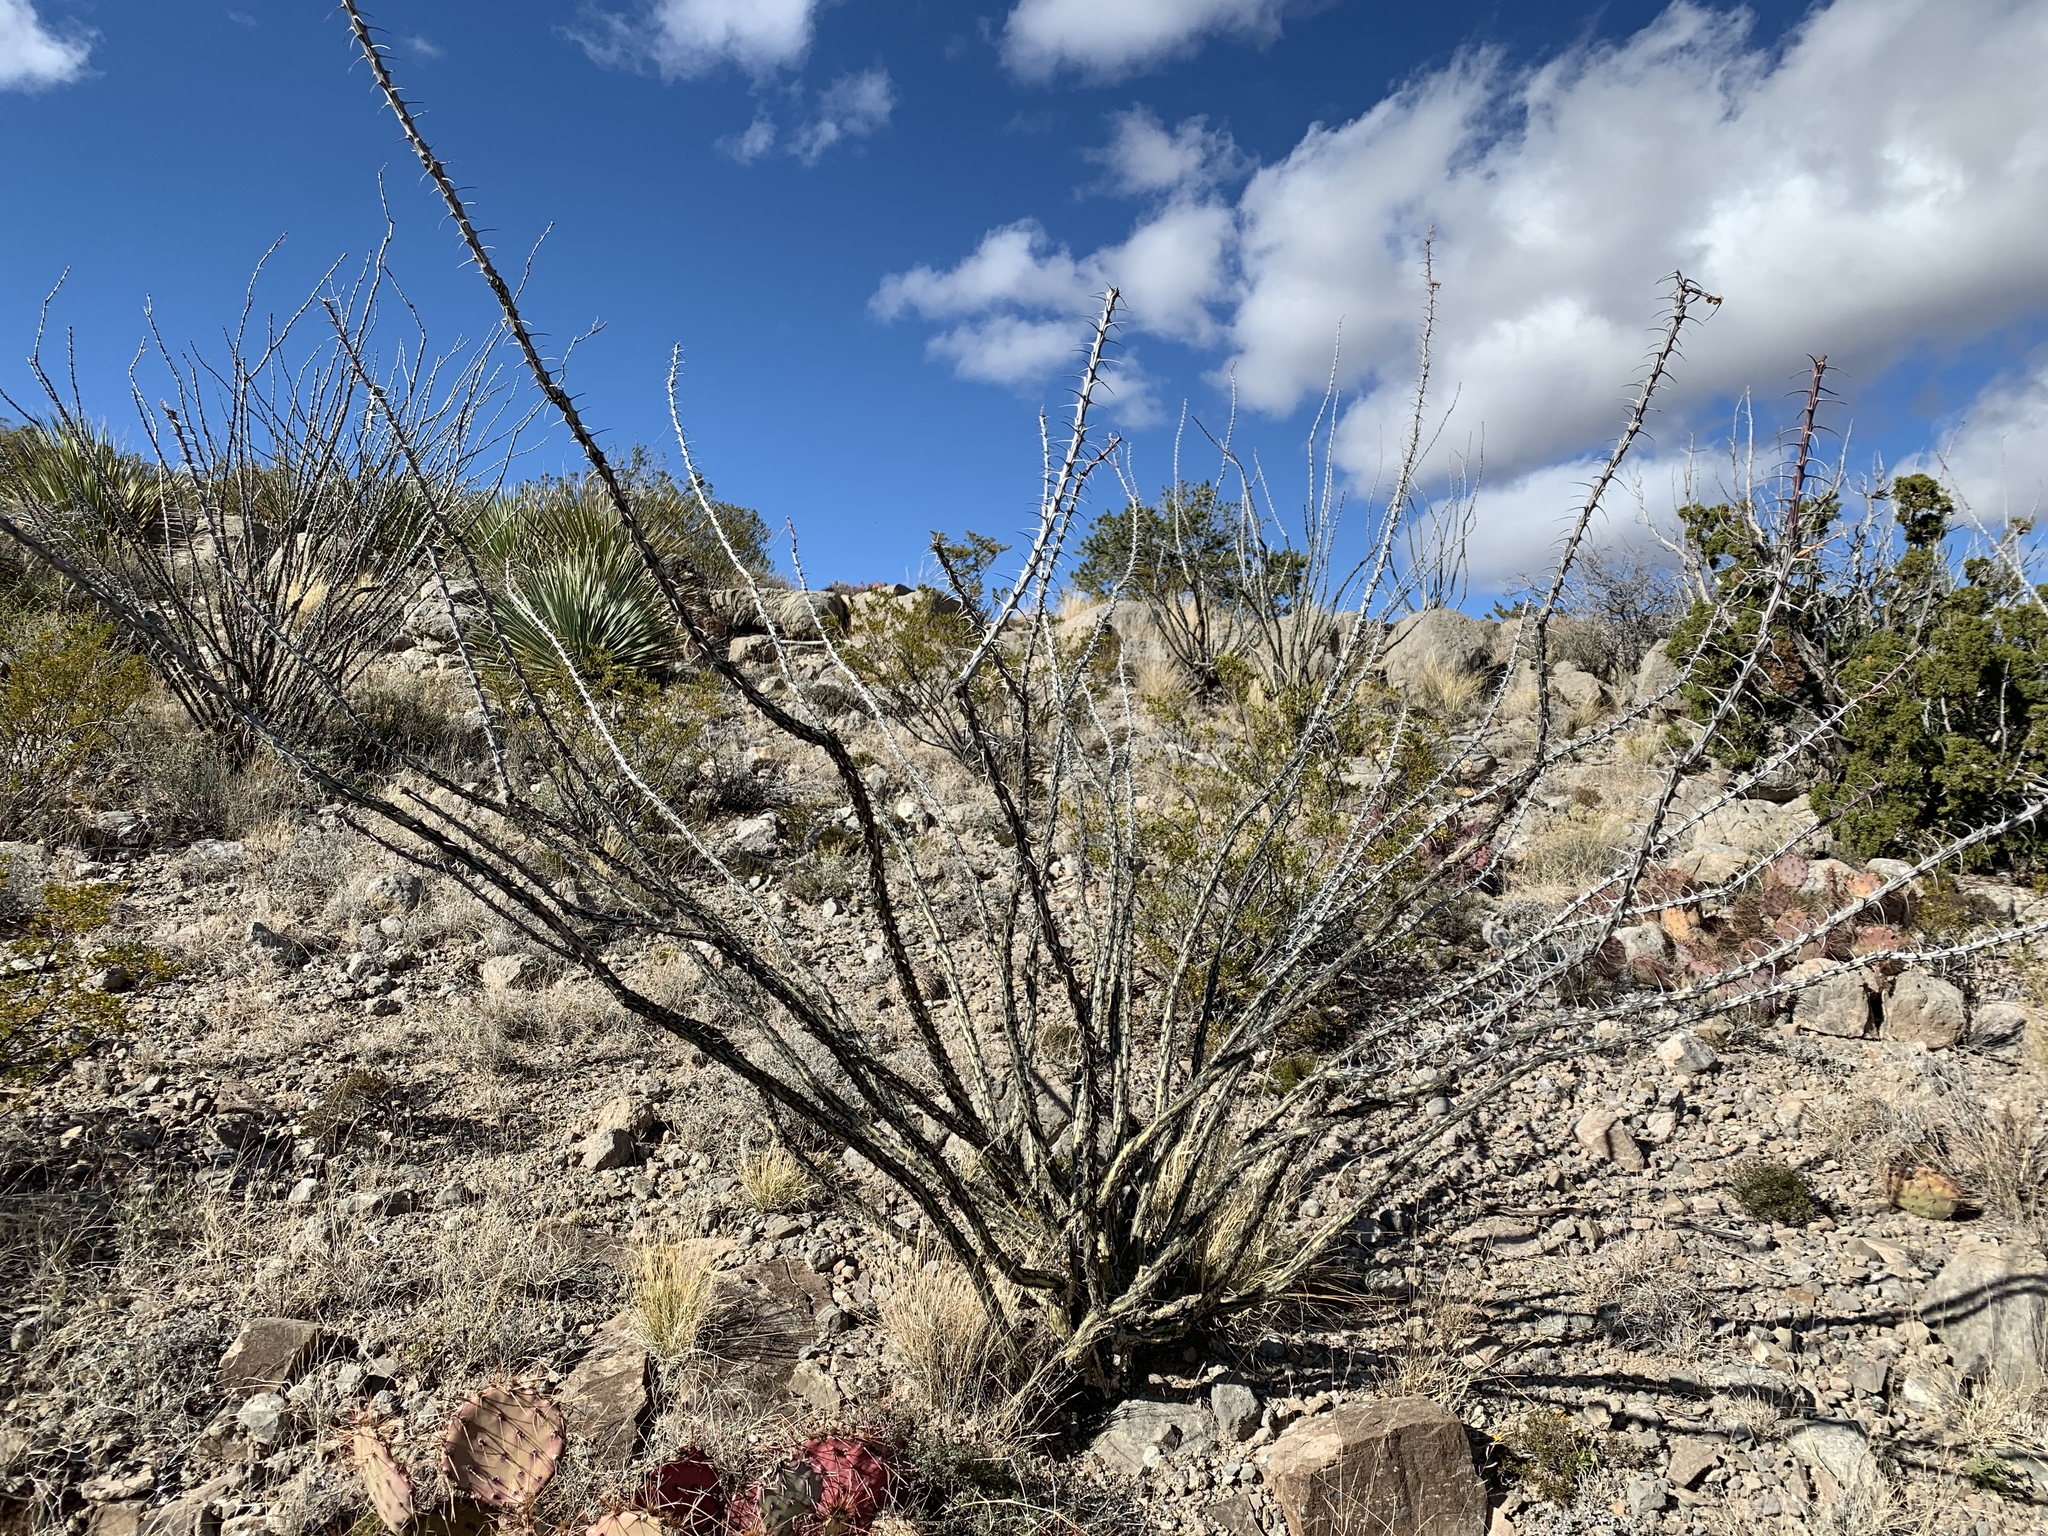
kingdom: Plantae
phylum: Tracheophyta
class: Magnoliopsida
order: Ericales
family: Fouquieriaceae
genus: Fouquieria
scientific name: Fouquieria splendens
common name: Vine-cactus
